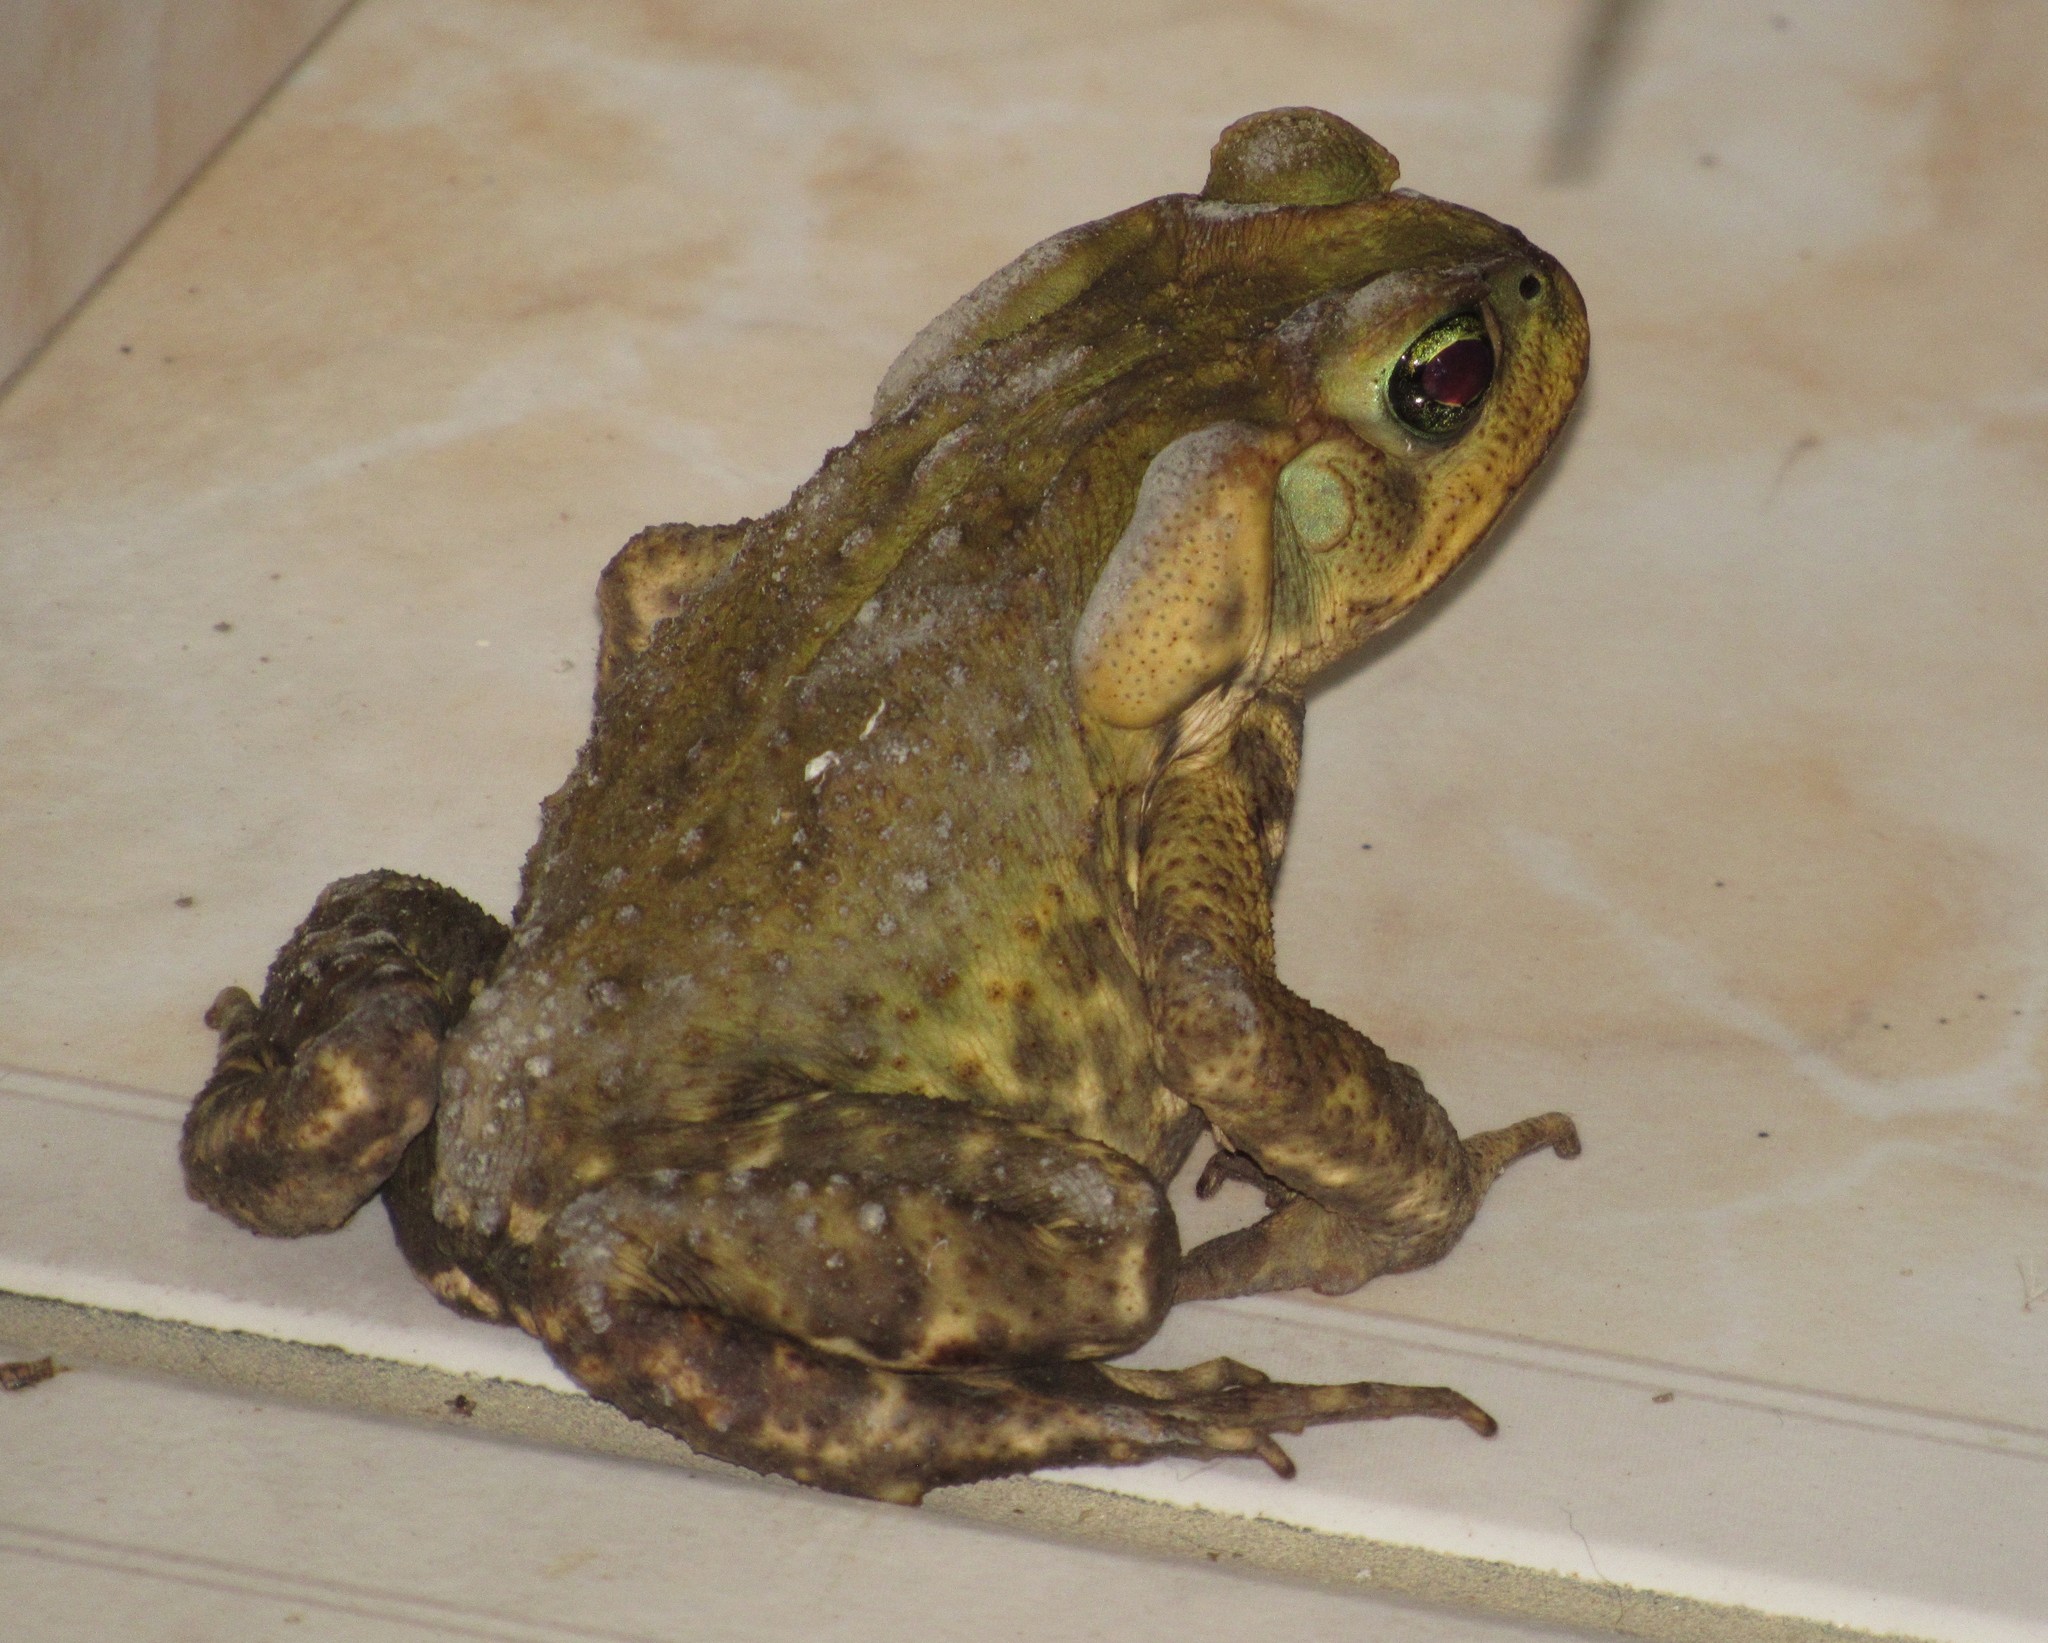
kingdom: Animalia
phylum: Chordata
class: Amphibia
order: Anura
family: Bufonidae
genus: Rhinella
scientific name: Rhinella icterica
